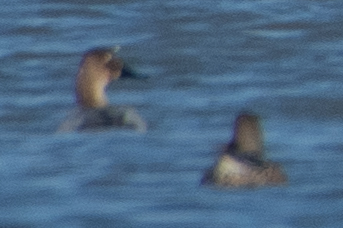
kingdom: Animalia
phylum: Chordata
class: Aves
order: Anseriformes
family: Anatidae
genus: Aythya
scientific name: Aythya valisineria
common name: Canvasback
